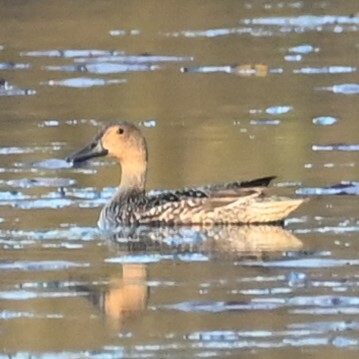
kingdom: Animalia
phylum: Chordata
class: Aves
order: Anseriformes
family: Anatidae
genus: Anas
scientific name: Anas acuta
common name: Northern pintail
